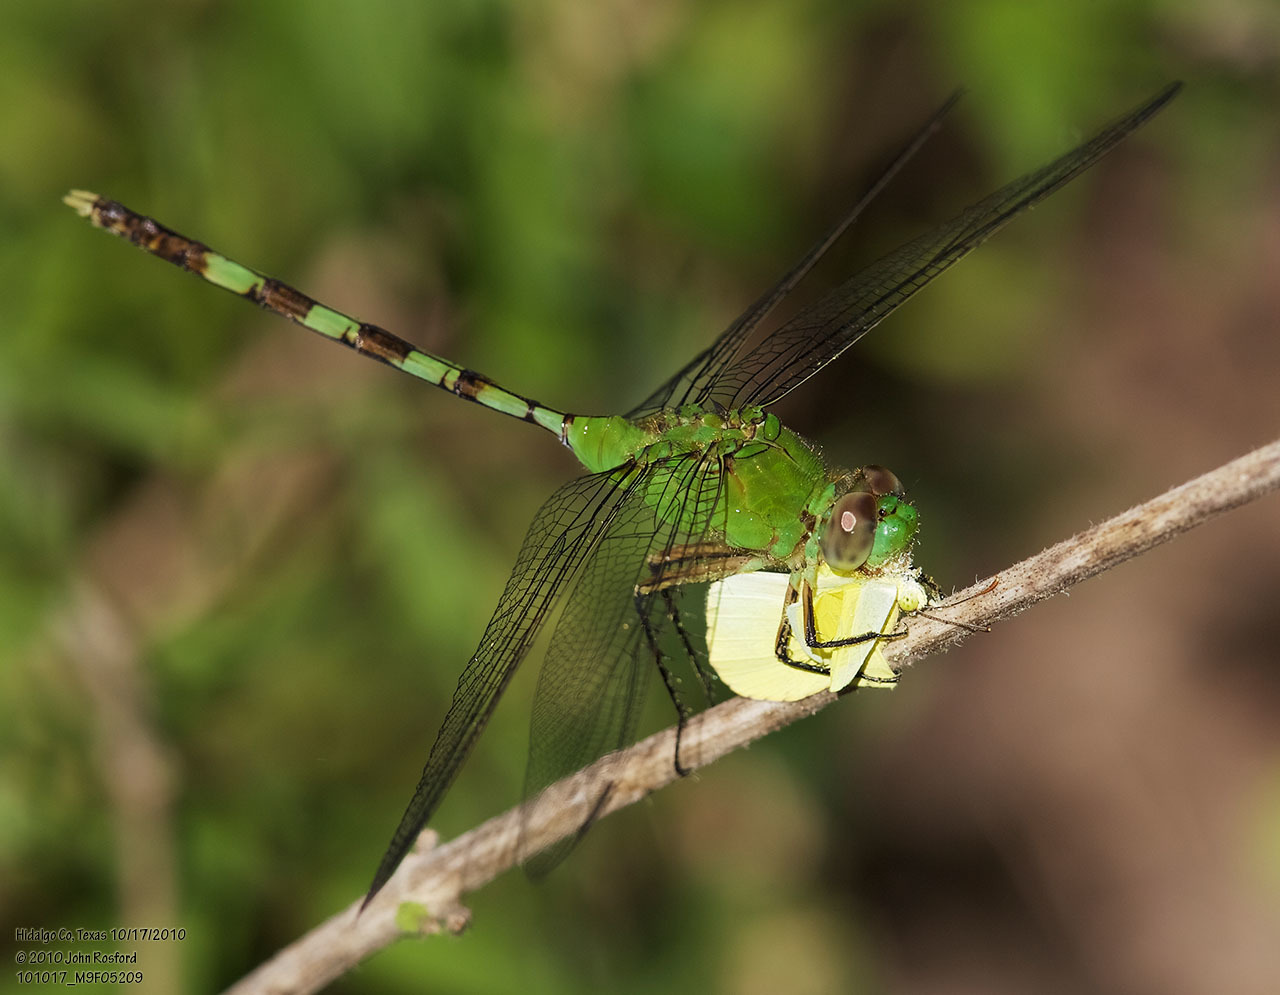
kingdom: Animalia
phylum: Arthropoda
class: Insecta
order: Odonata
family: Libellulidae
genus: Erythemis
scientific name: Erythemis vesiculosa
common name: Great pondhawk
